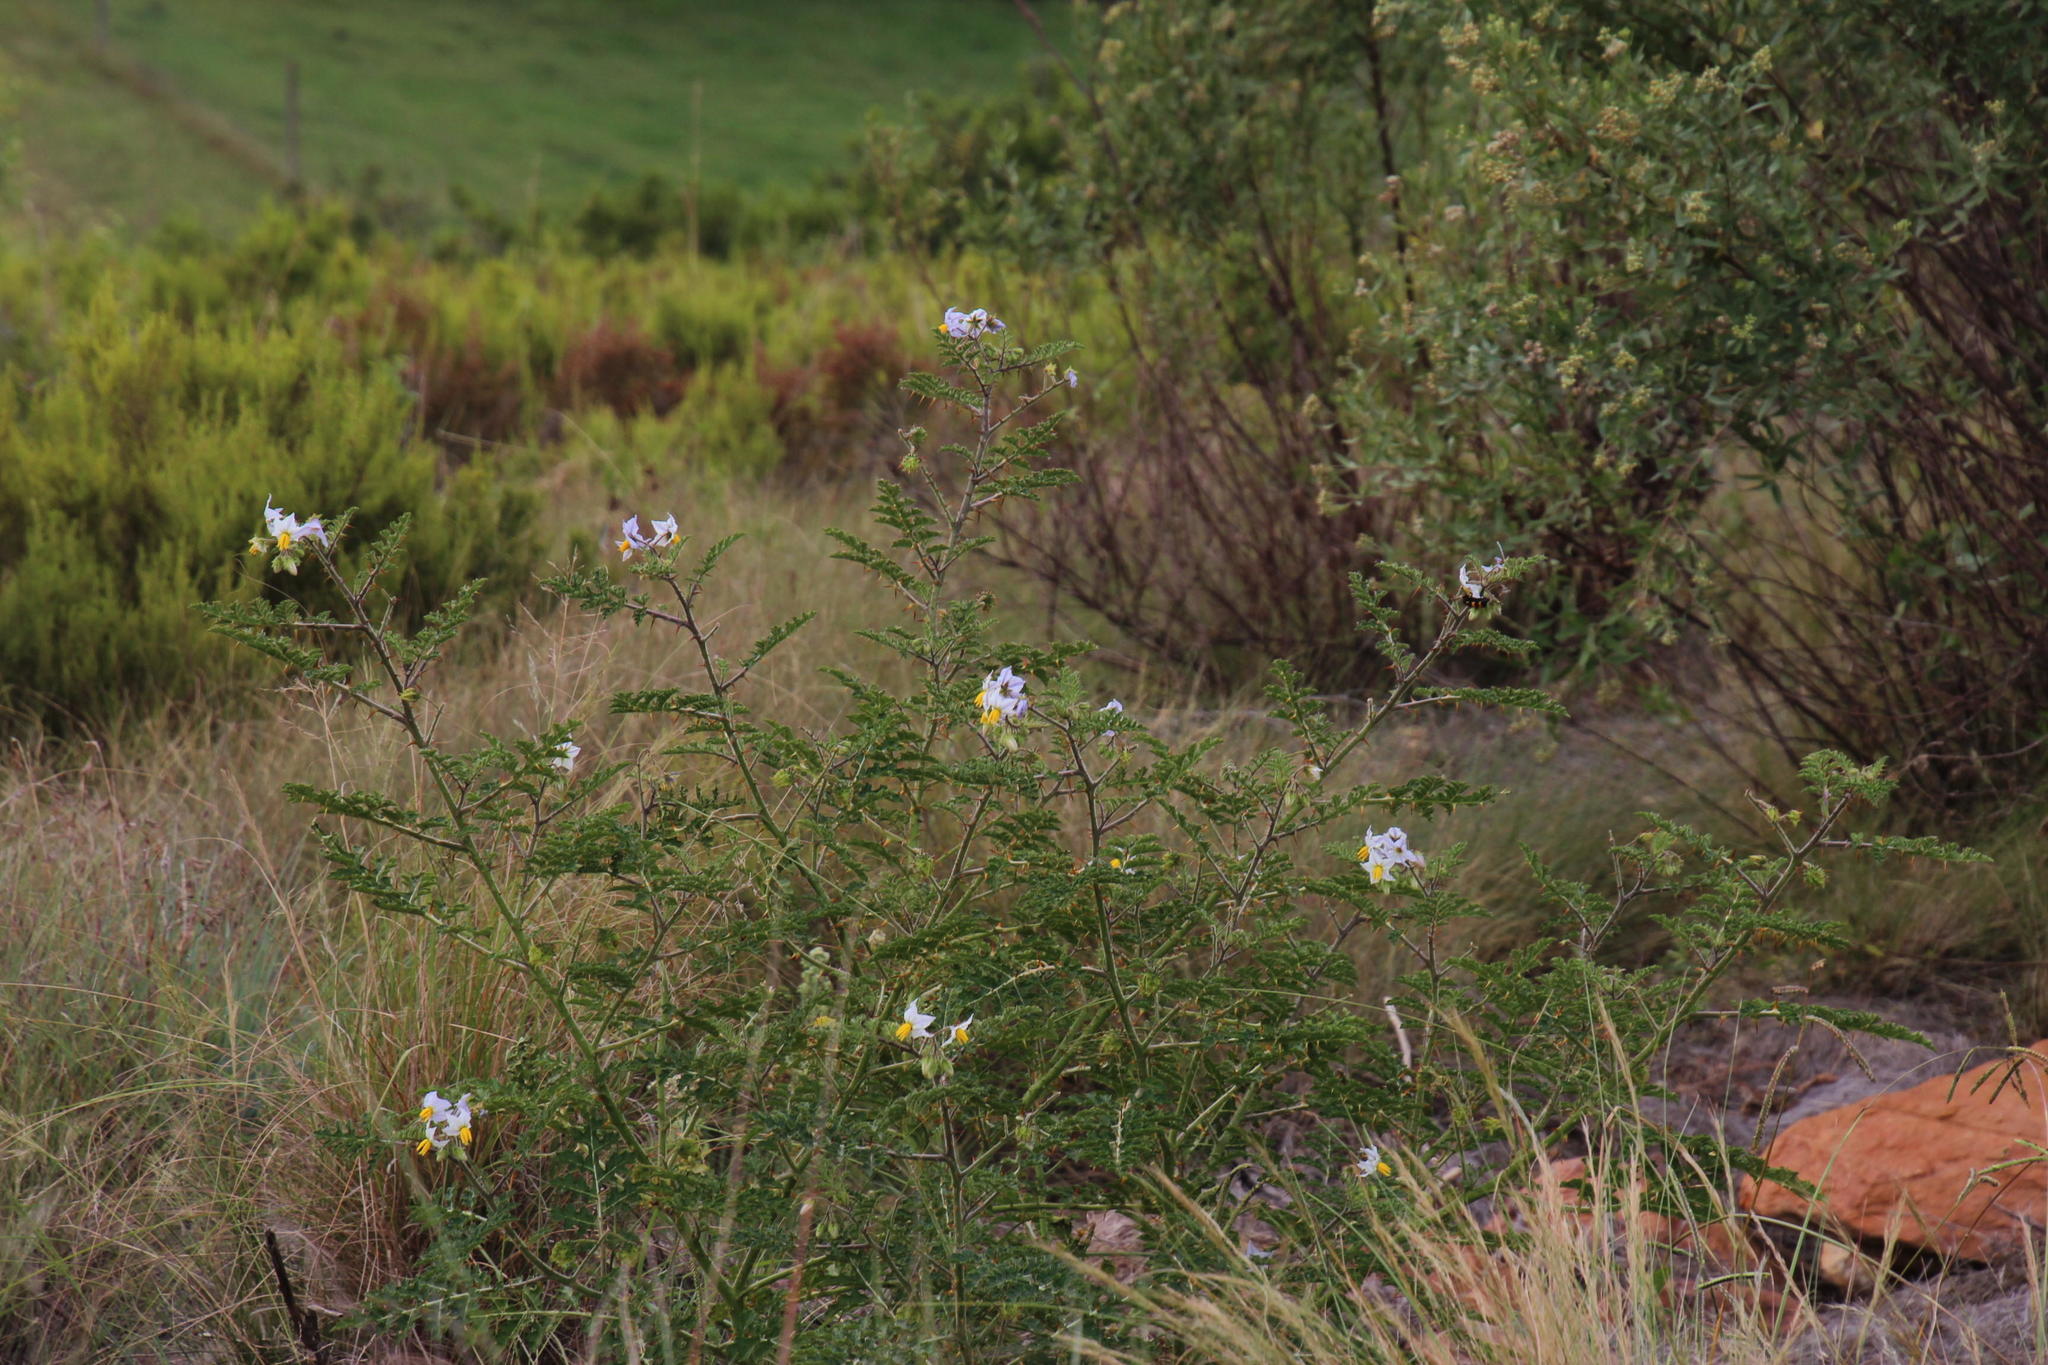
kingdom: Plantae
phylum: Tracheophyta
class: Magnoliopsida
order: Solanales
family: Solanaceae
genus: Solanum
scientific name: Solanum sisymbriifolium
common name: Red buffalo-bur
